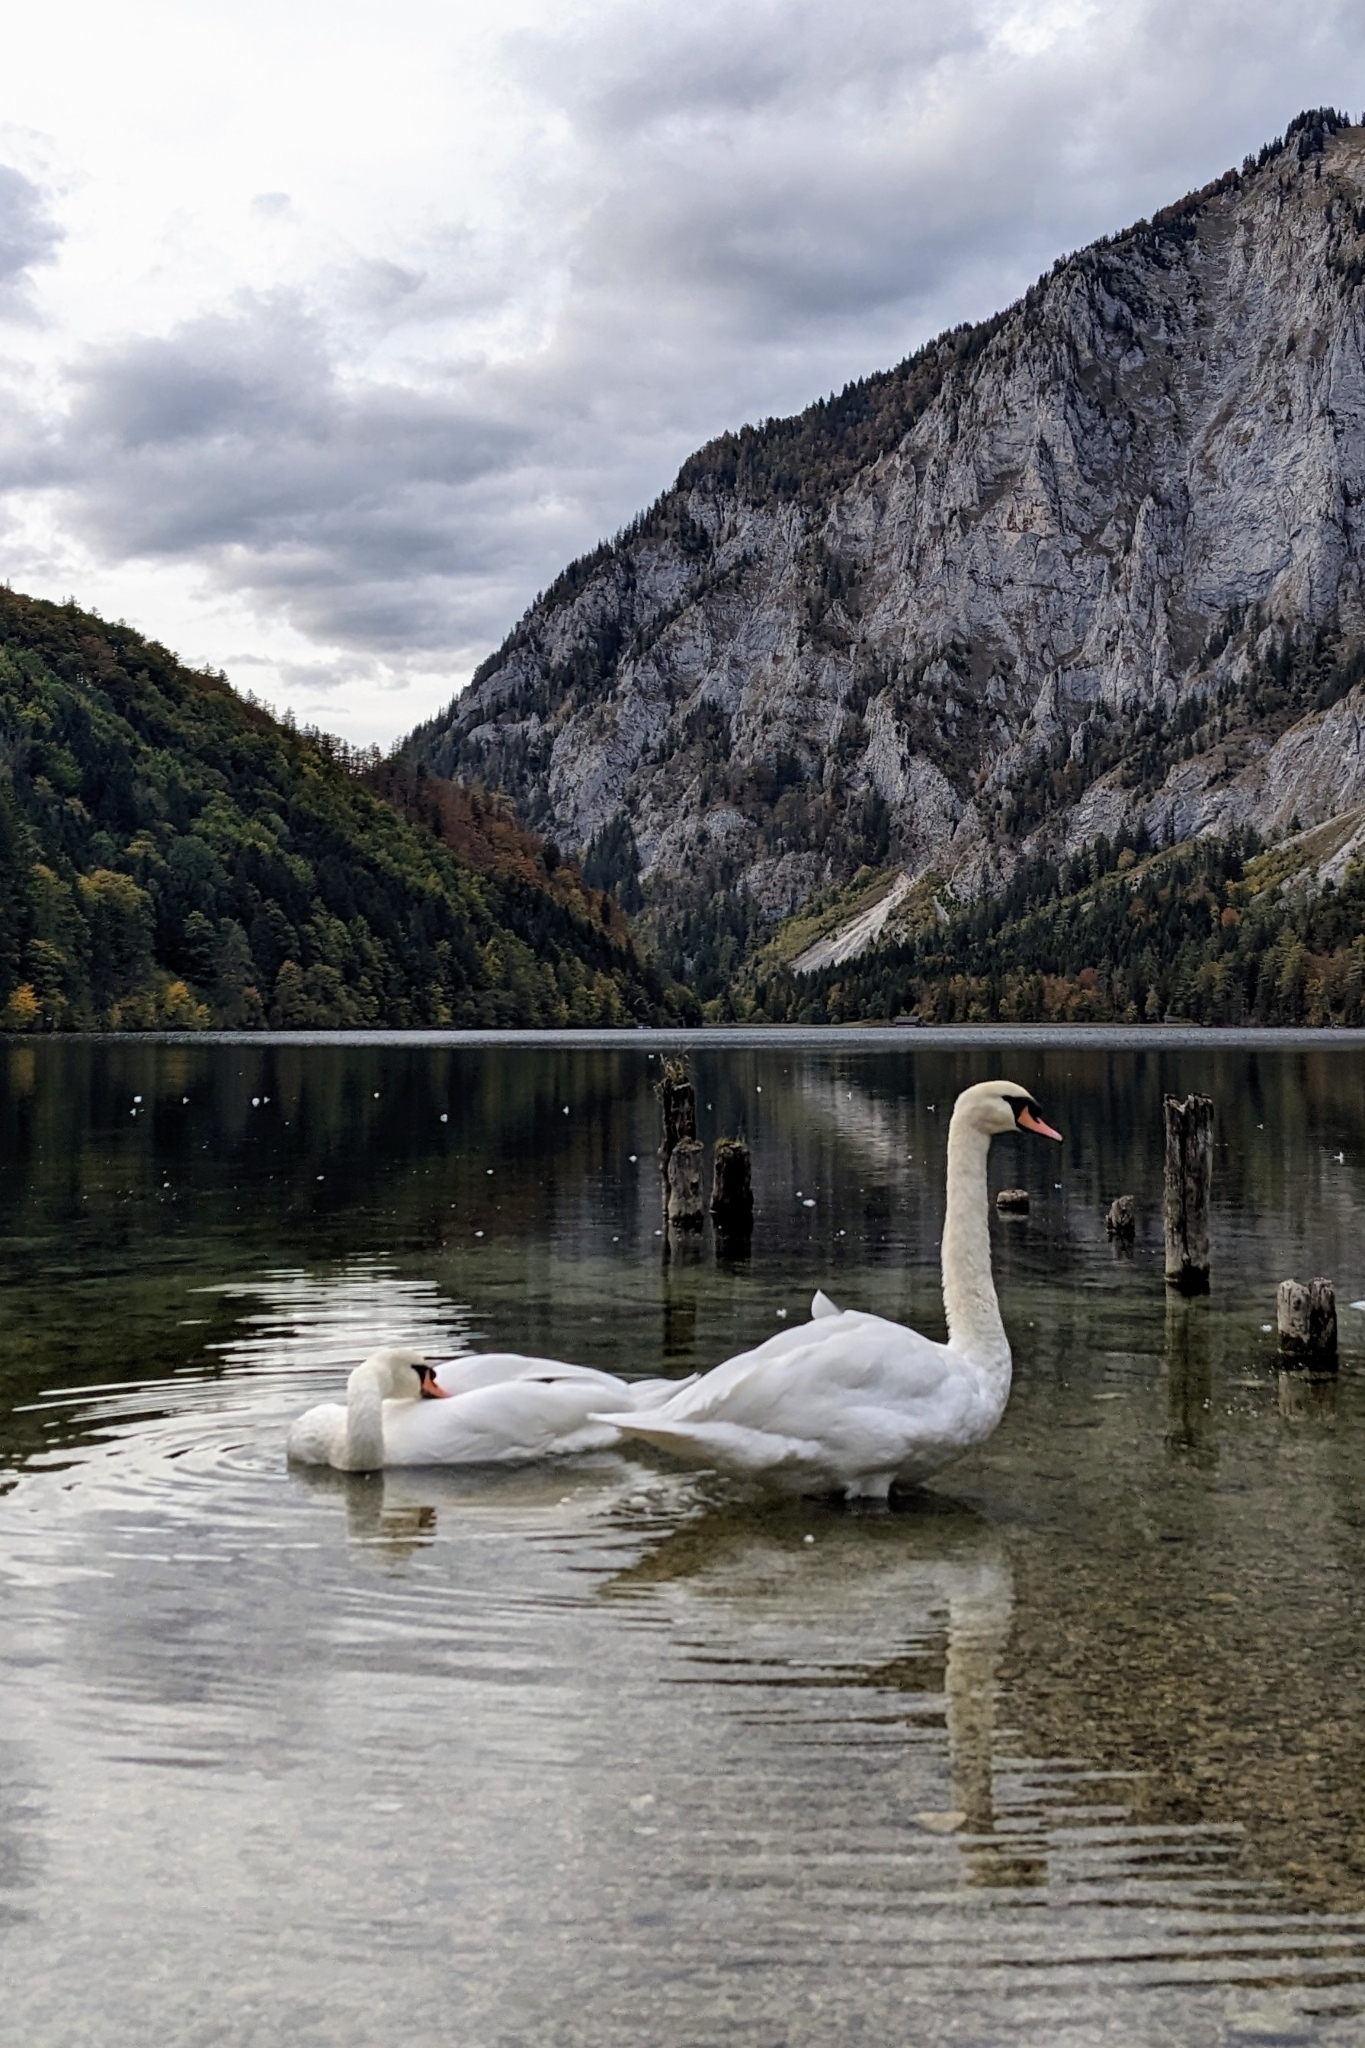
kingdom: Animalia
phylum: Chordata
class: Aves
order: Anseriformes
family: Anatidae
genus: Cygnus
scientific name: Cygnus olor
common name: Mute swan
